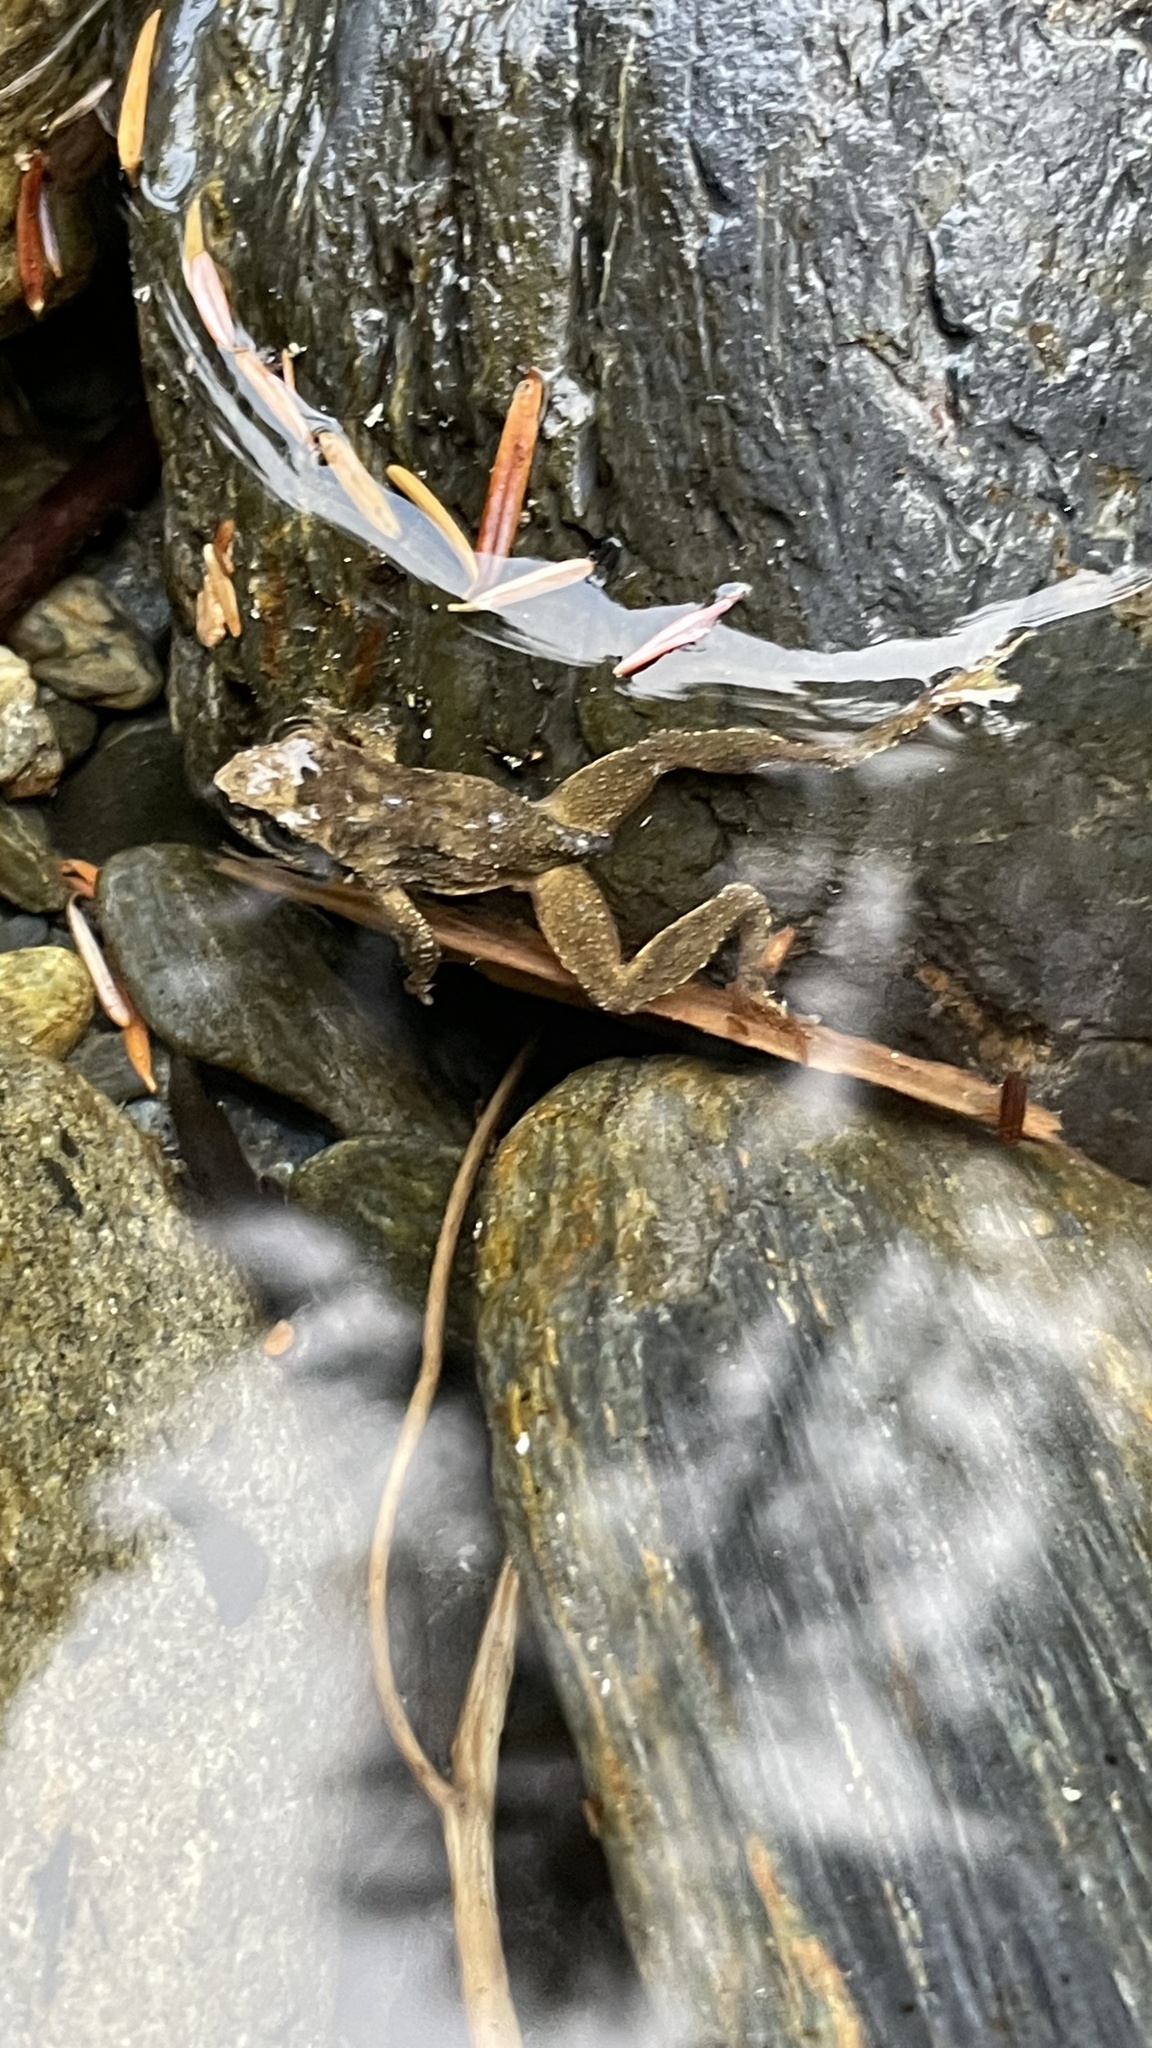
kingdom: Animalia
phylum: Chordata
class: Amphibia
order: Anura
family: Ascaphidae
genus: Ascaphus
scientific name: Ascaphus truei
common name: Tailed frog
